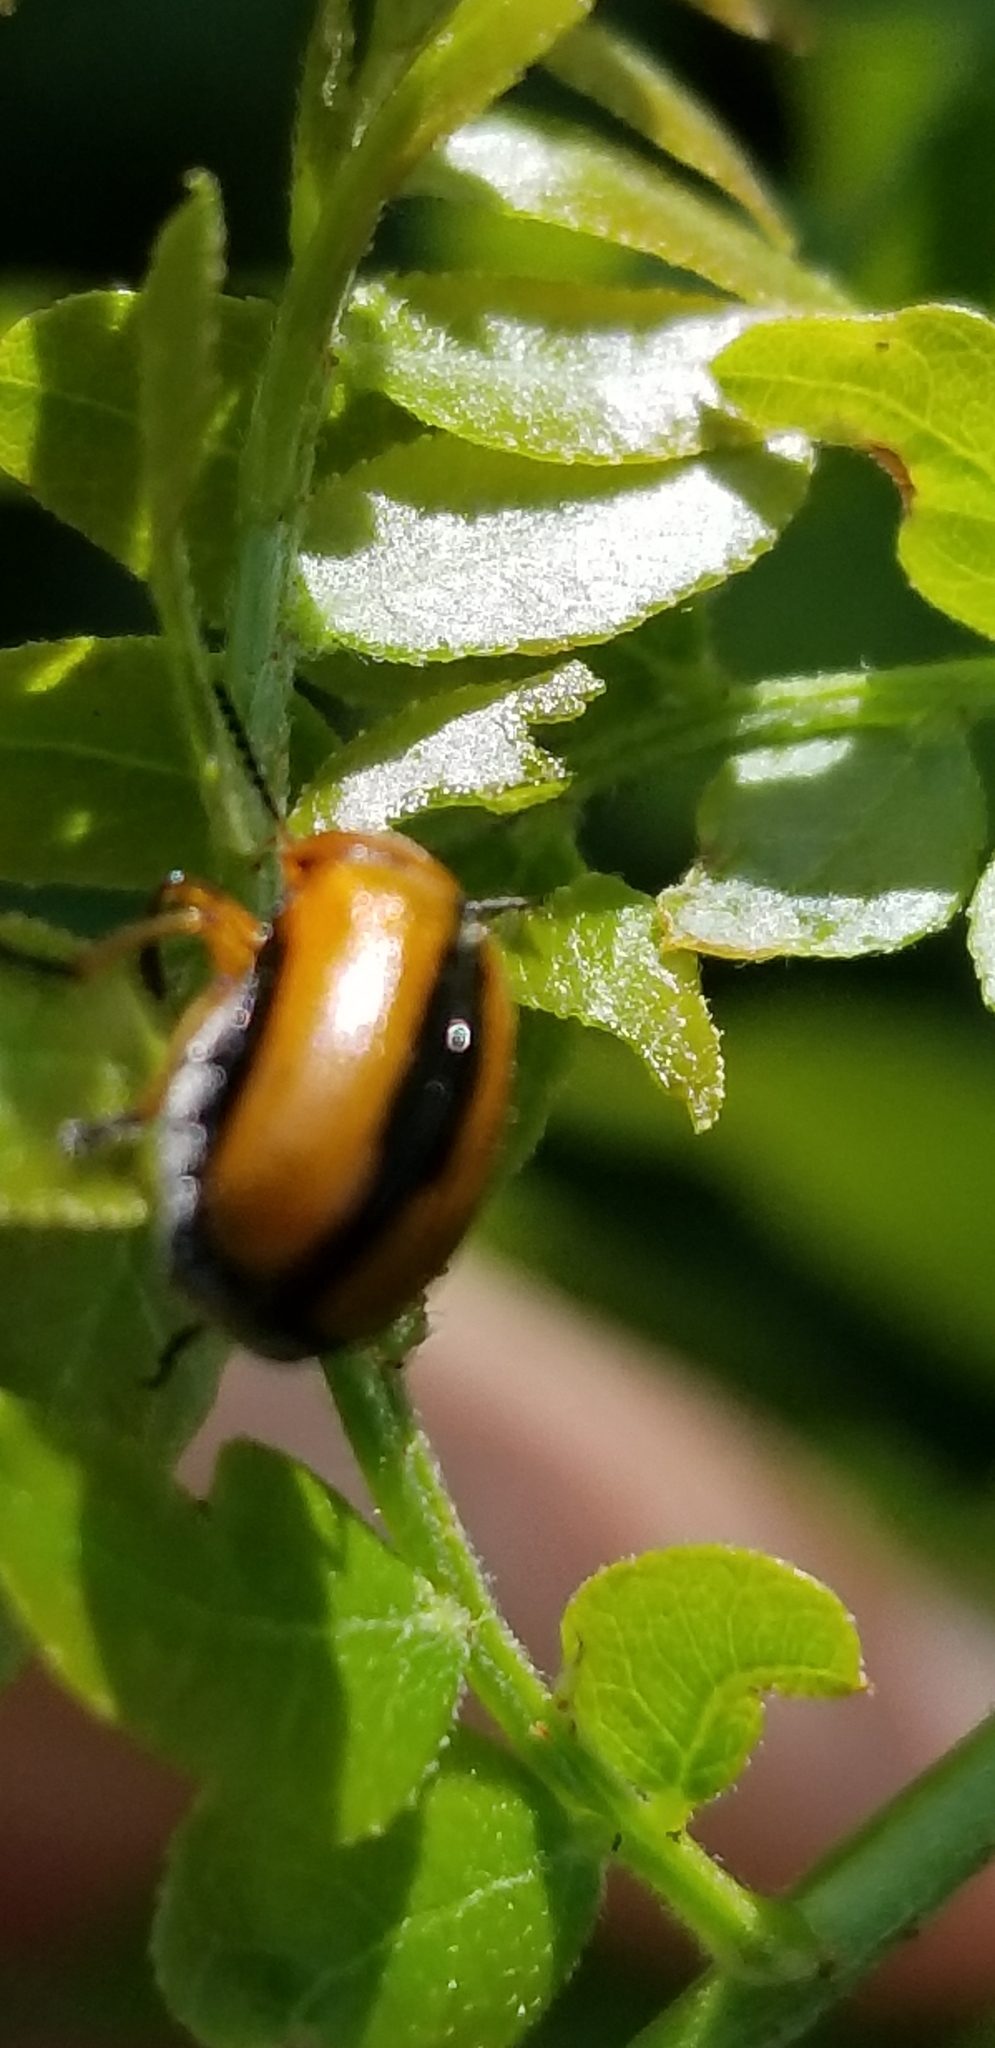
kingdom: Animalia
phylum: Arthropoda
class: Insecta
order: Coleoptera
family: Chrysomelidae
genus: Anomoea
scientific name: Anomoea laticlavia
